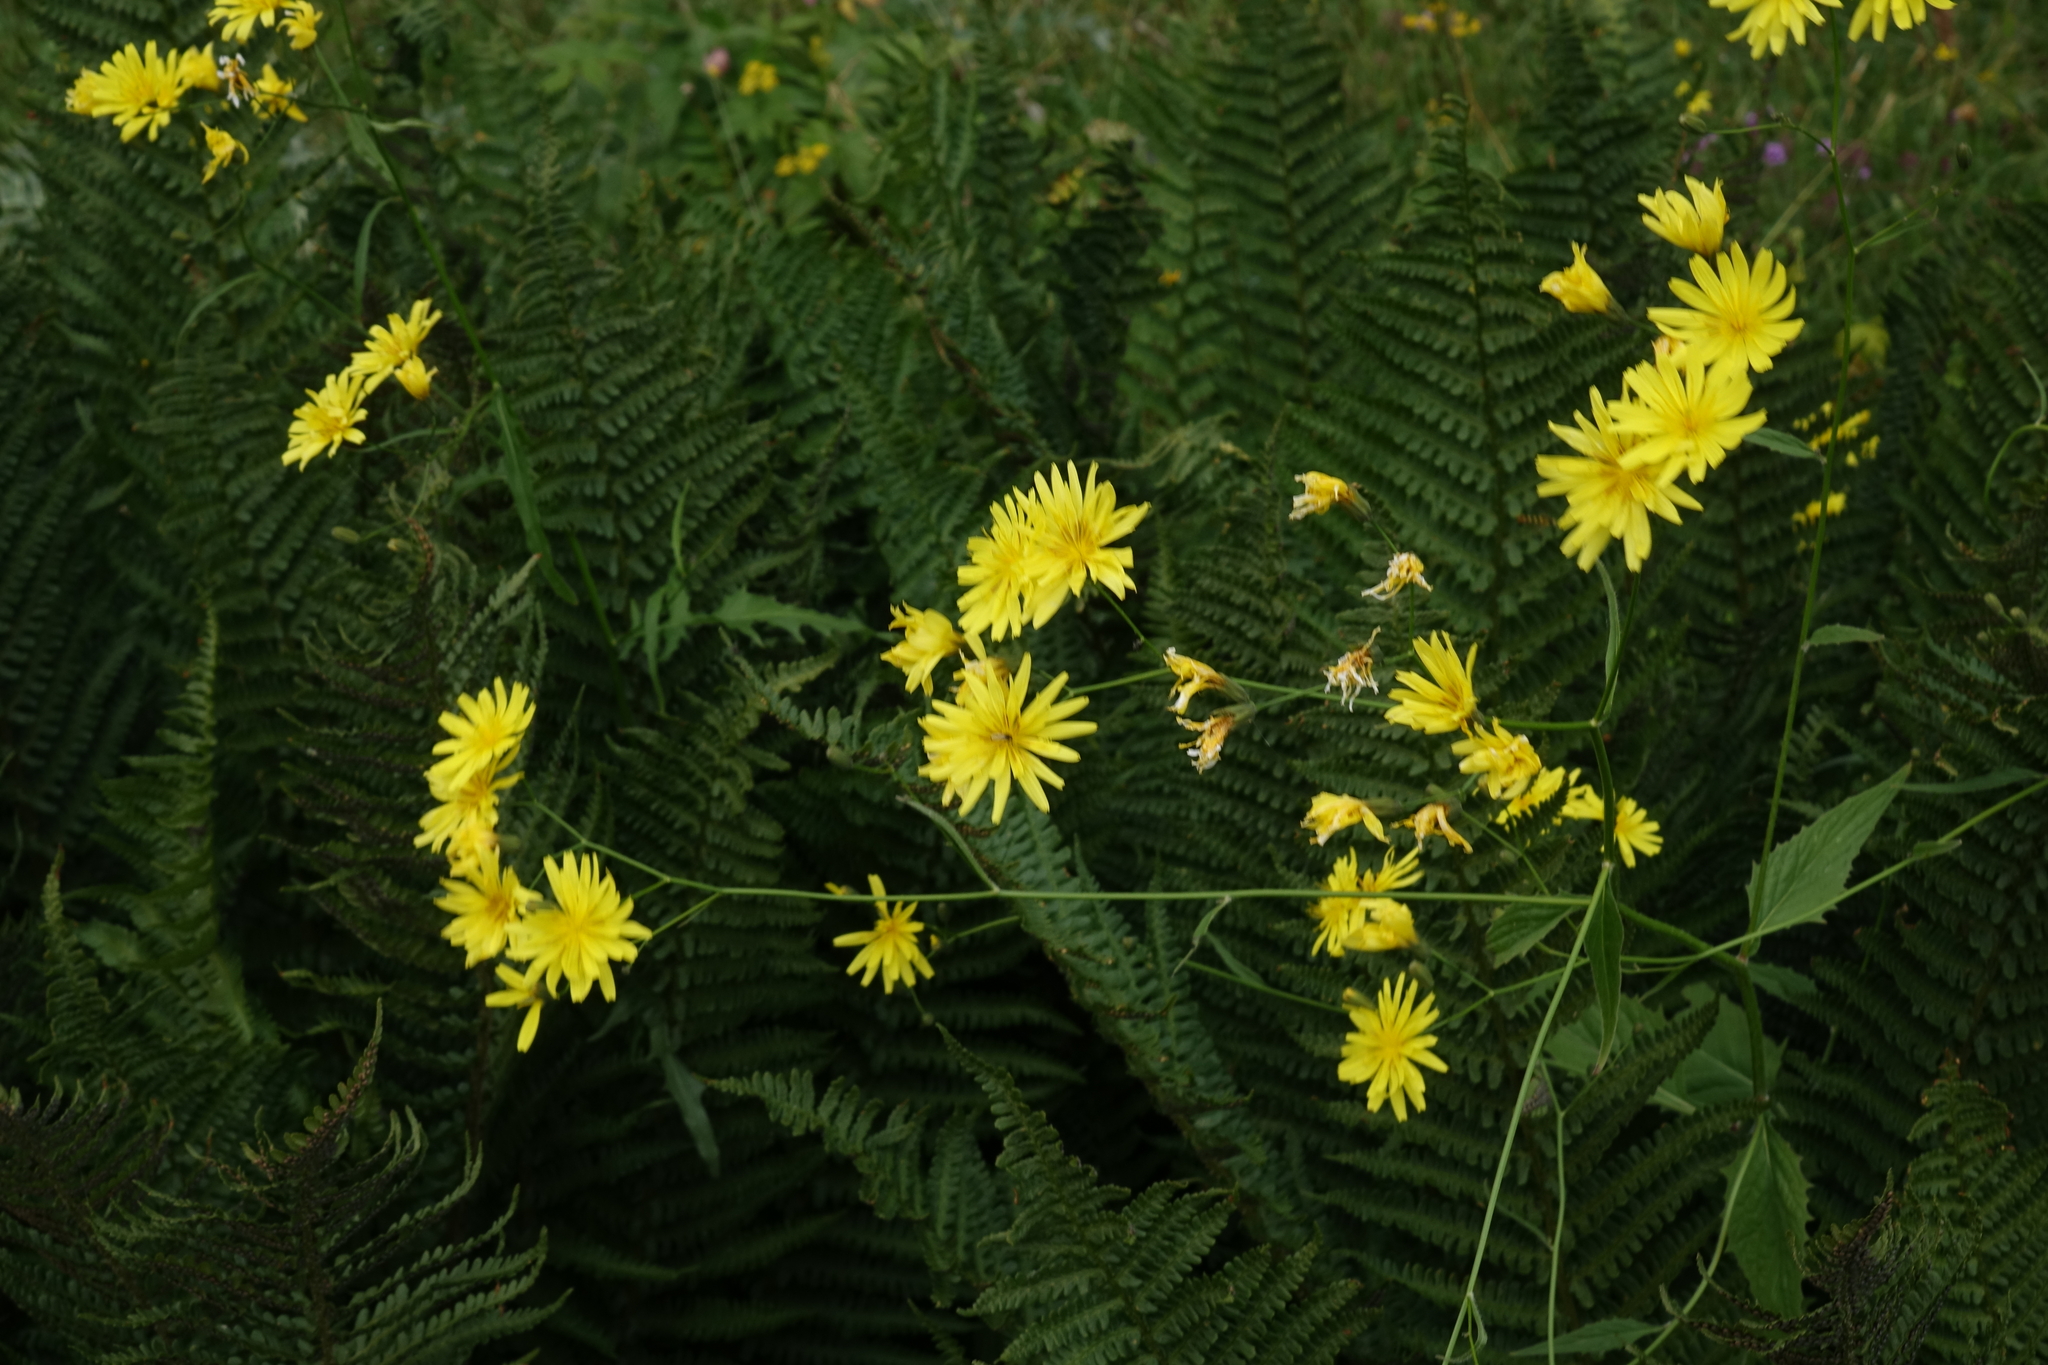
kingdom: Plantae
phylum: Tracheophyta
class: Magnoliopsida
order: Asterales
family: Asteraceae
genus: Lapsana
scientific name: Lapsana communis
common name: Nipplewort
